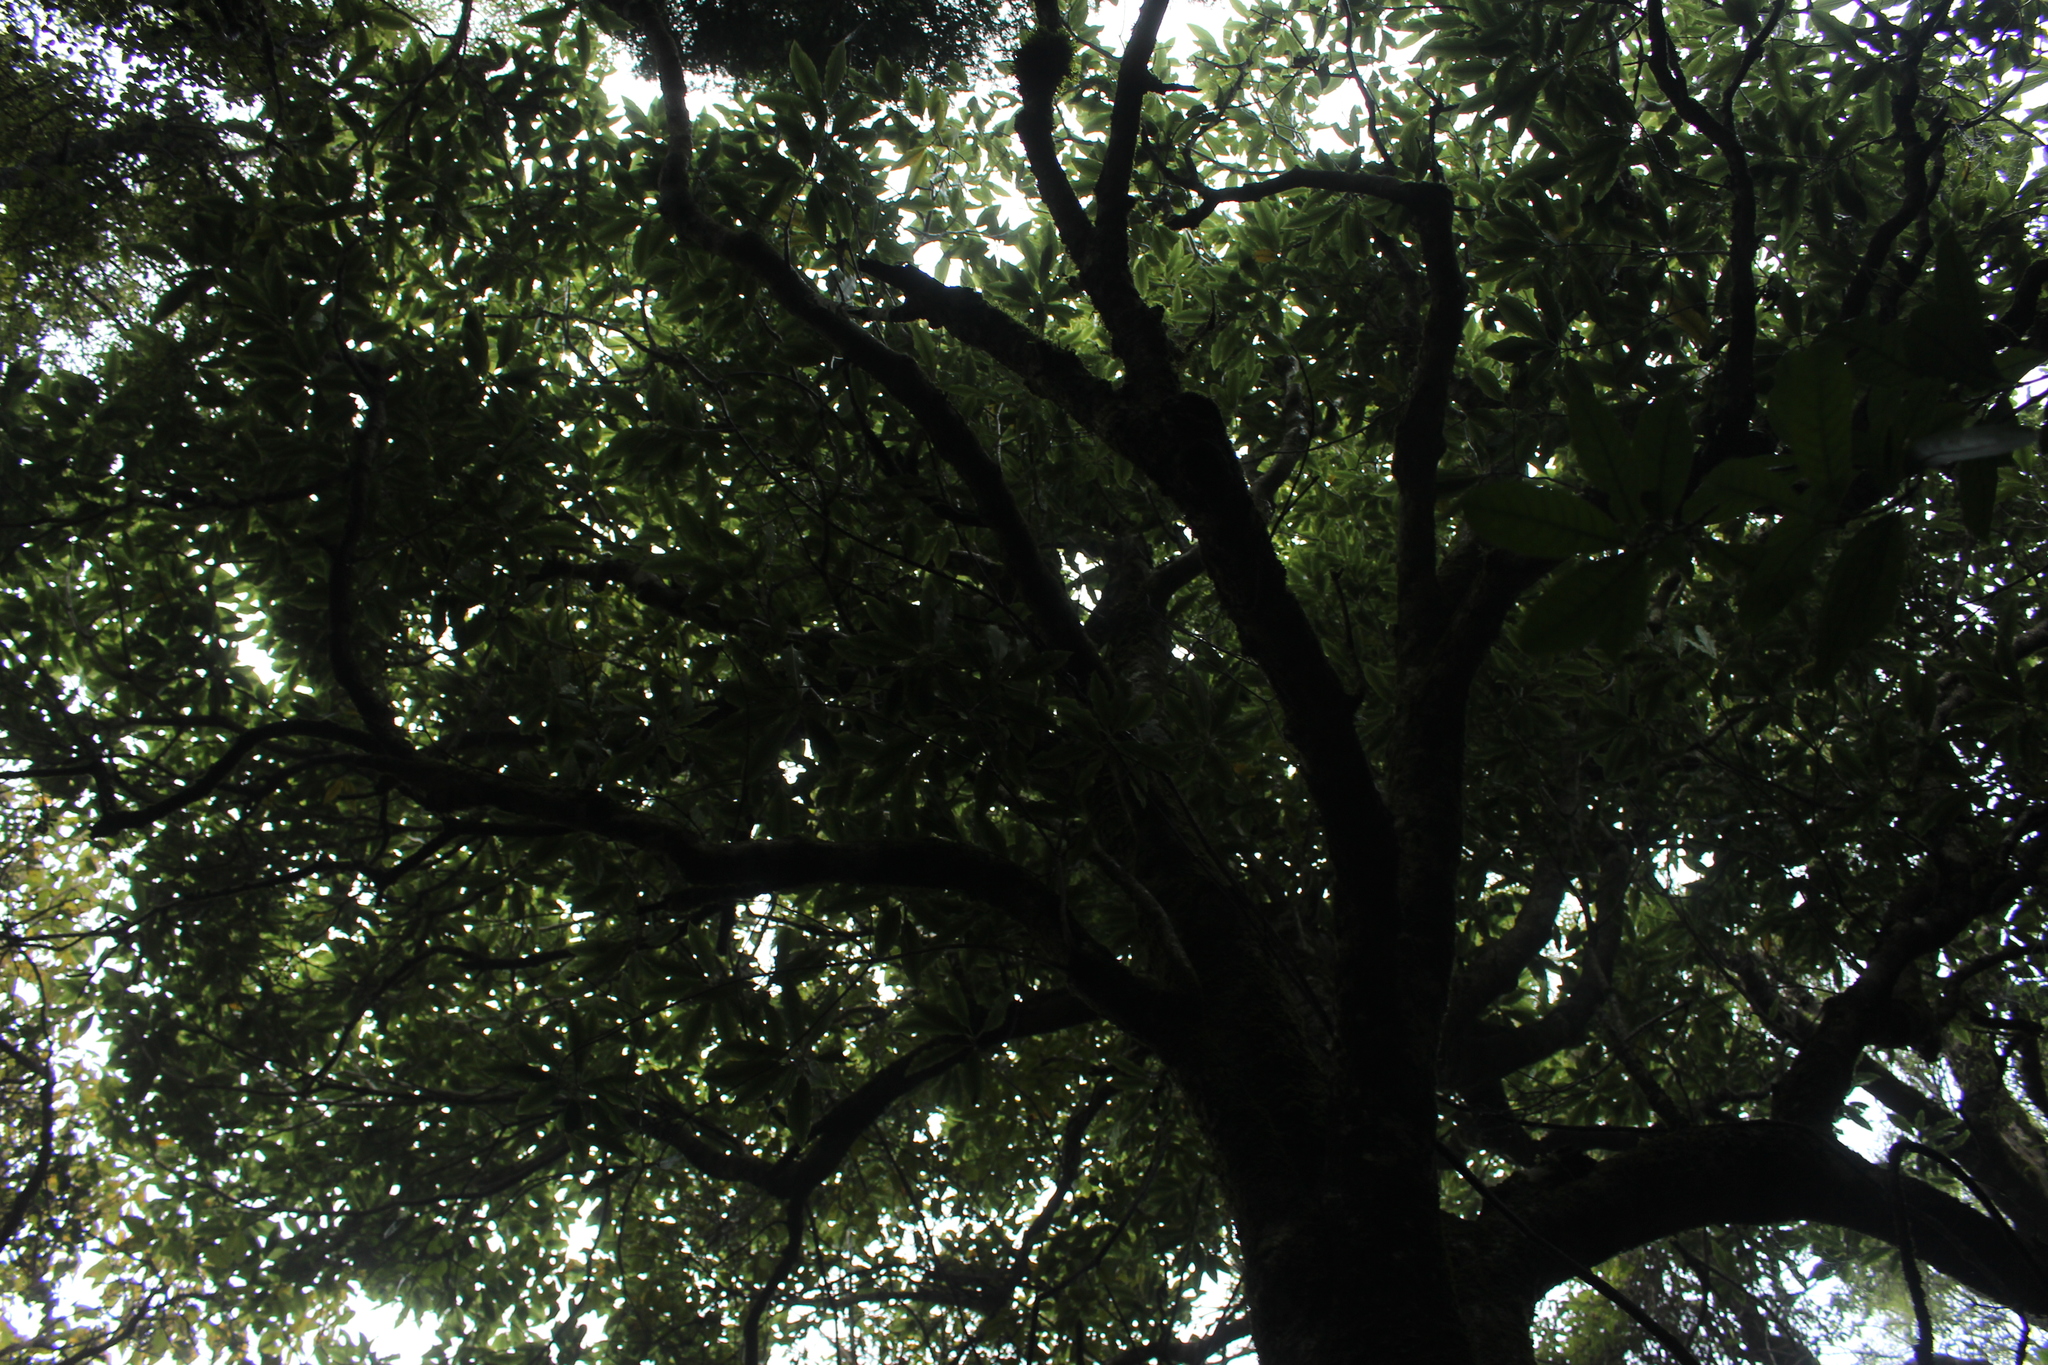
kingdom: Plantae
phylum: Tracheophyta
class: Magnoliopsida
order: Apiales
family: Pittosporaceae
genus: Pittosporum
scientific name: Pittosporum eugenioides
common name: Lemonwood
